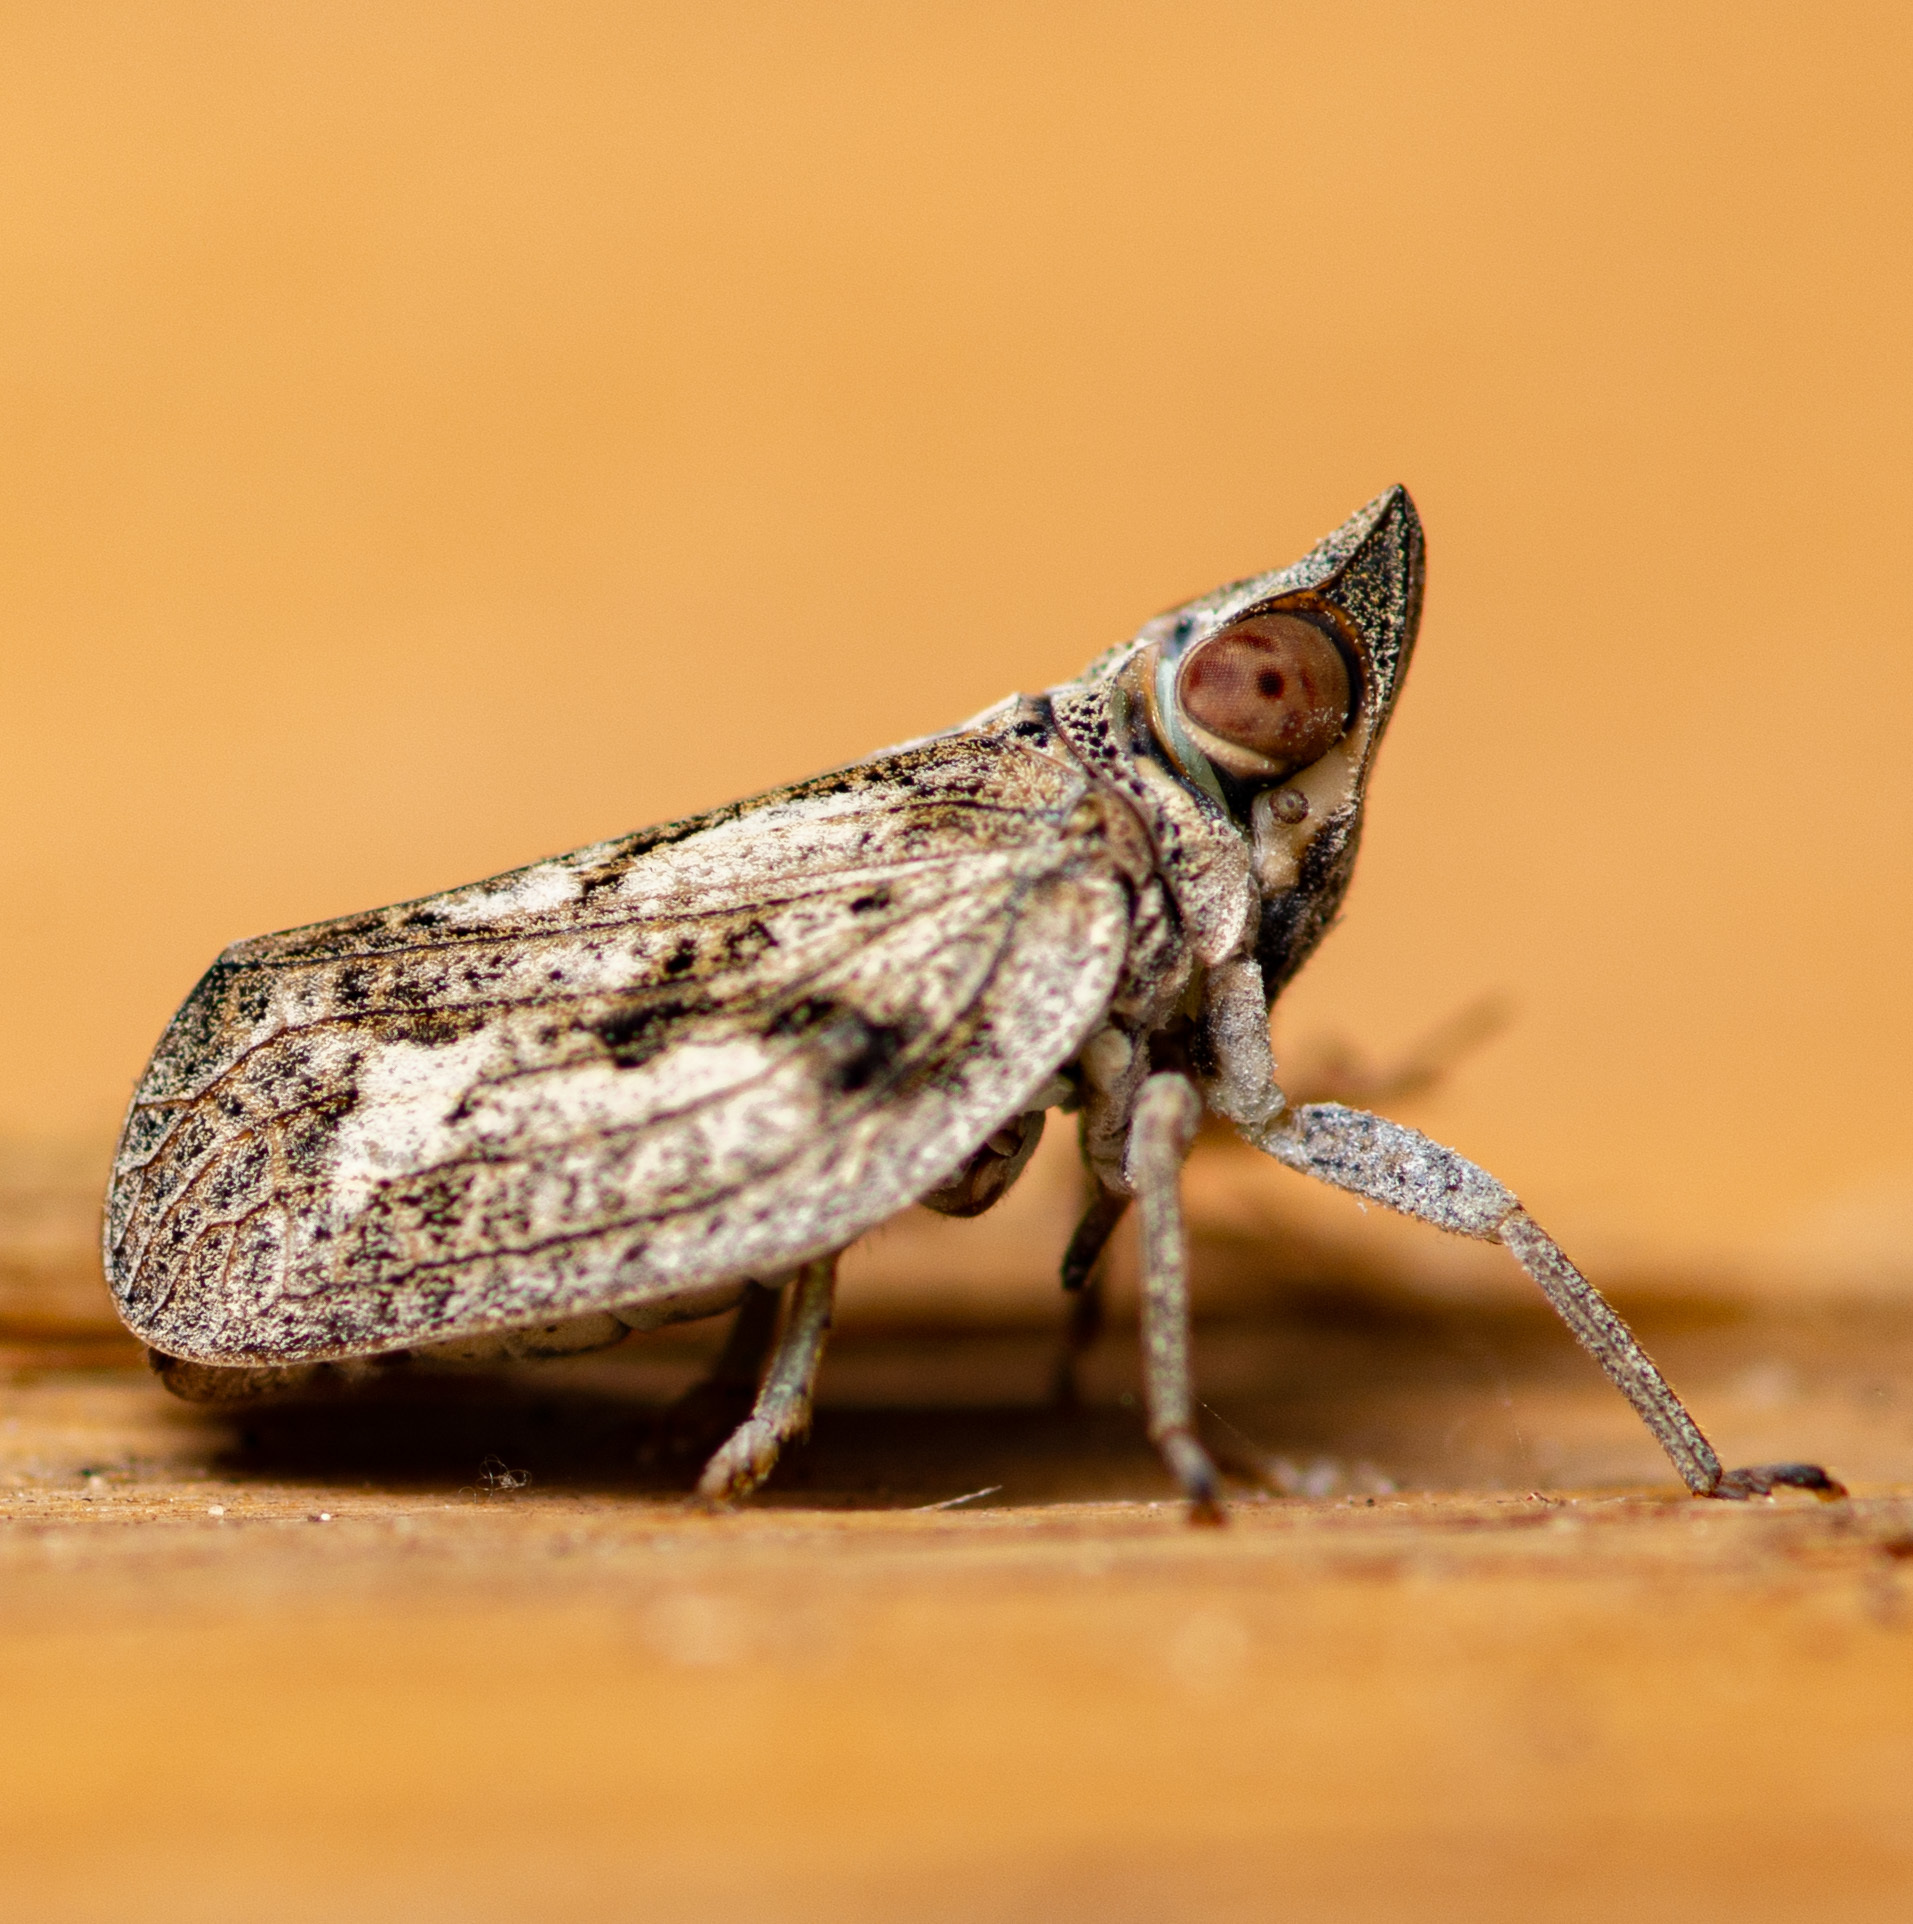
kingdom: Animalia
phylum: Arthropoda
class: Insecta
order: Hemiptera
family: Issidae
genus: Fowlerium
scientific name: Fowlerium acutum
